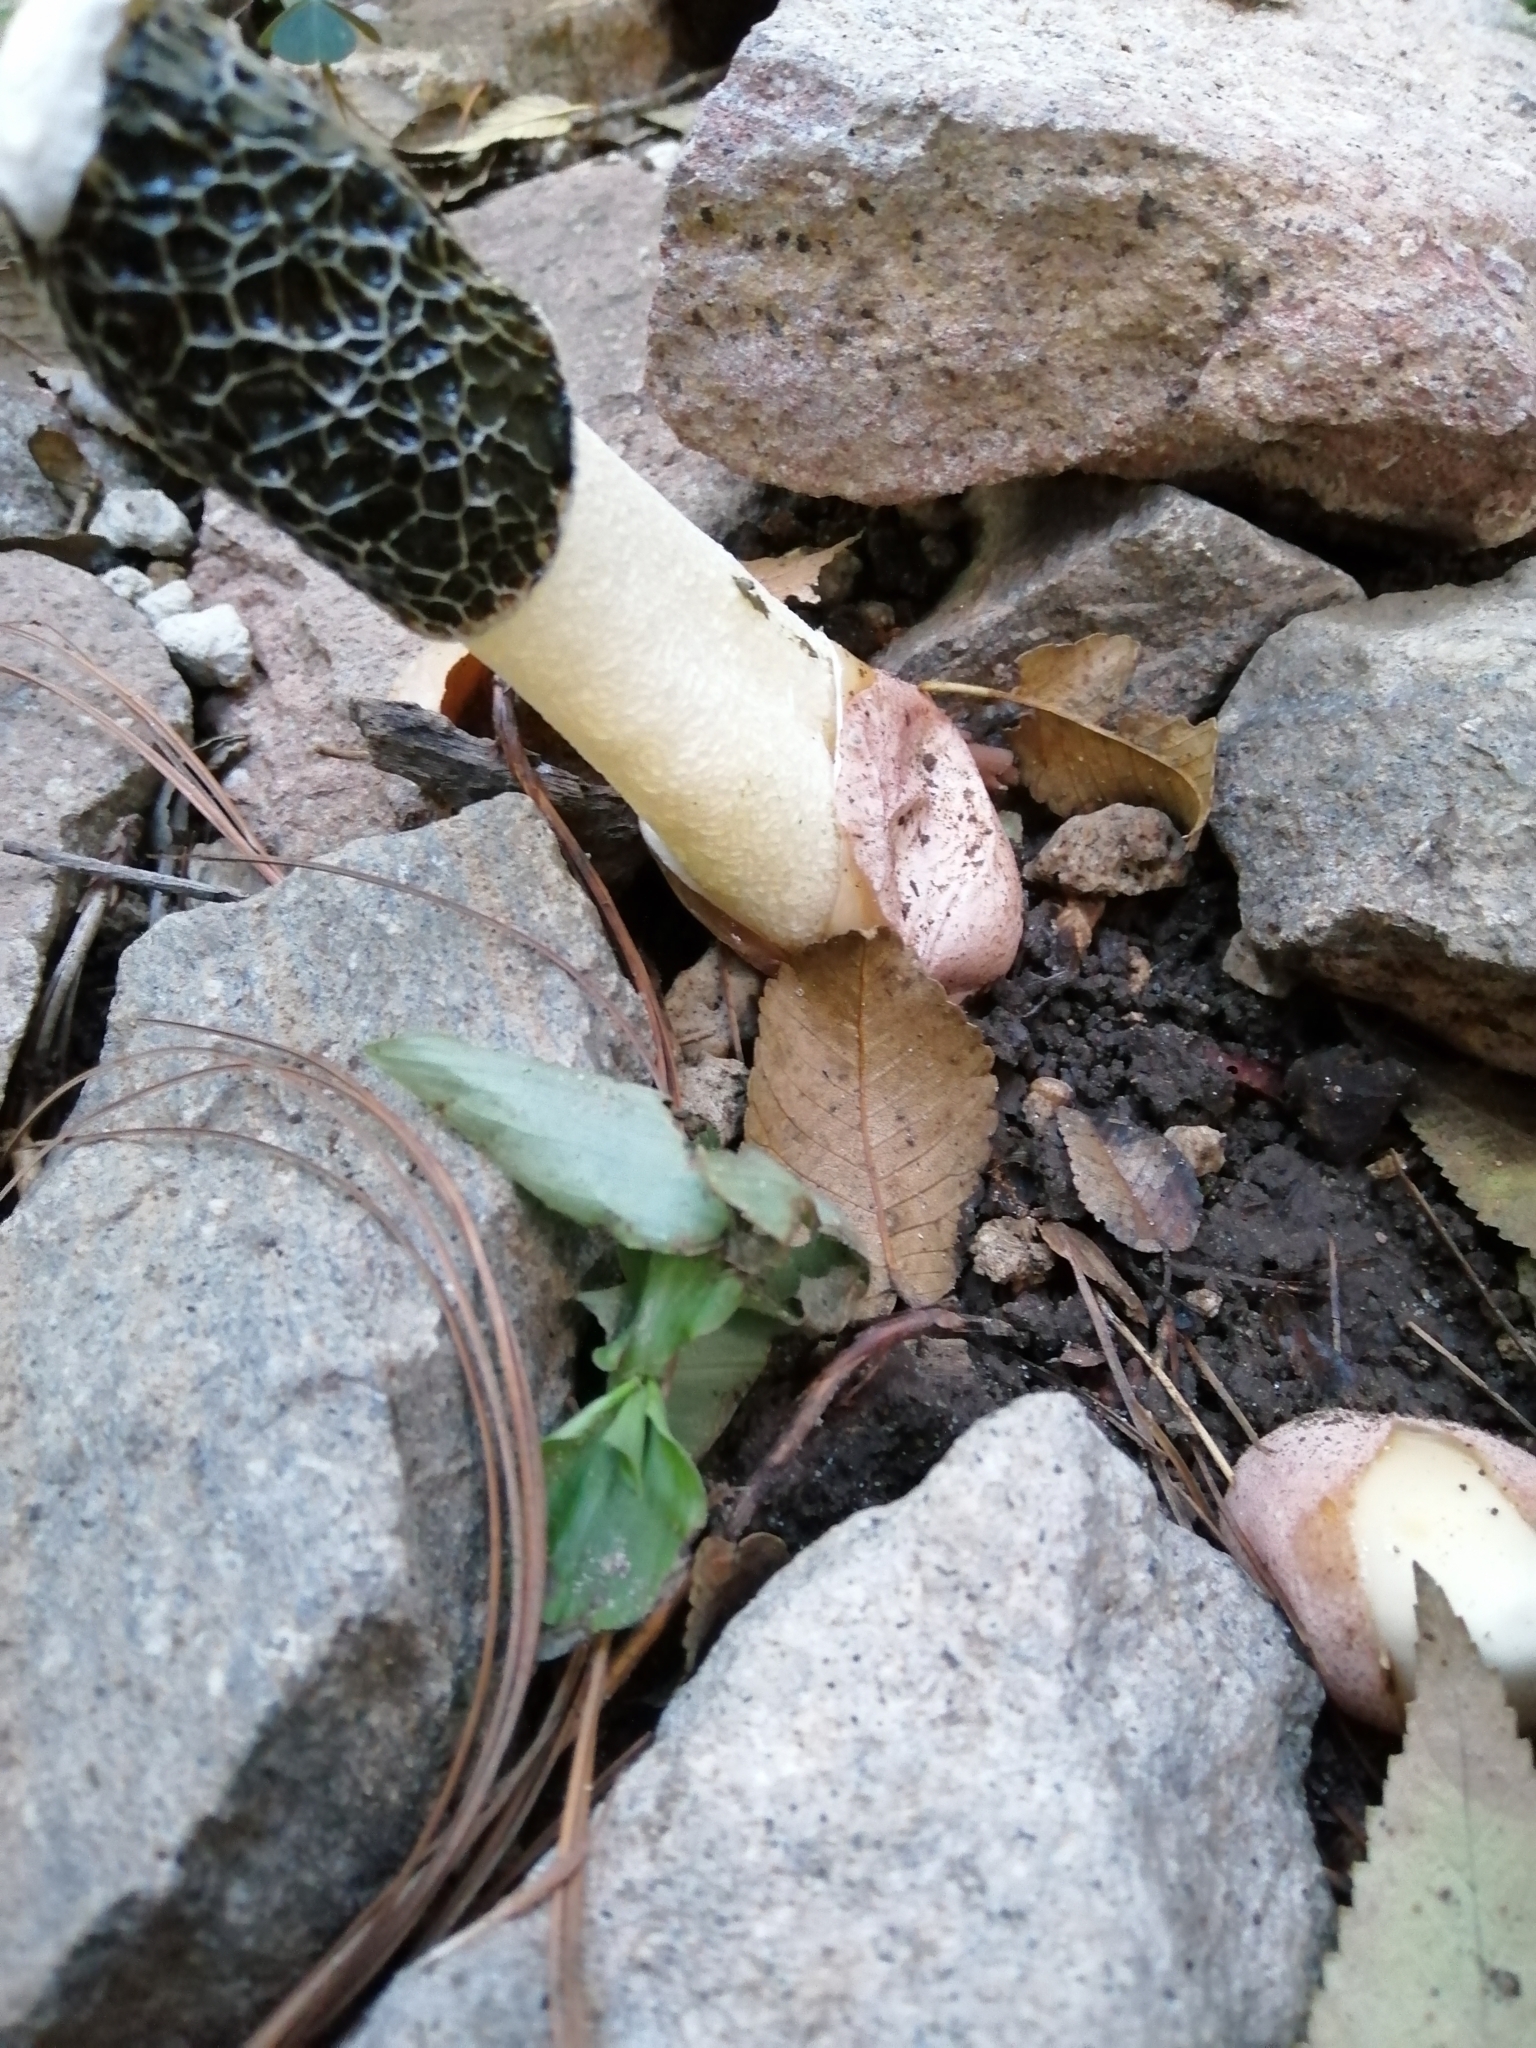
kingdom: Fungi
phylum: Basidiomycota
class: Agaricomycetes
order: Phallales
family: Phallaceae
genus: Phallus
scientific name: Phallus impudicus
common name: Common stinkhorn
